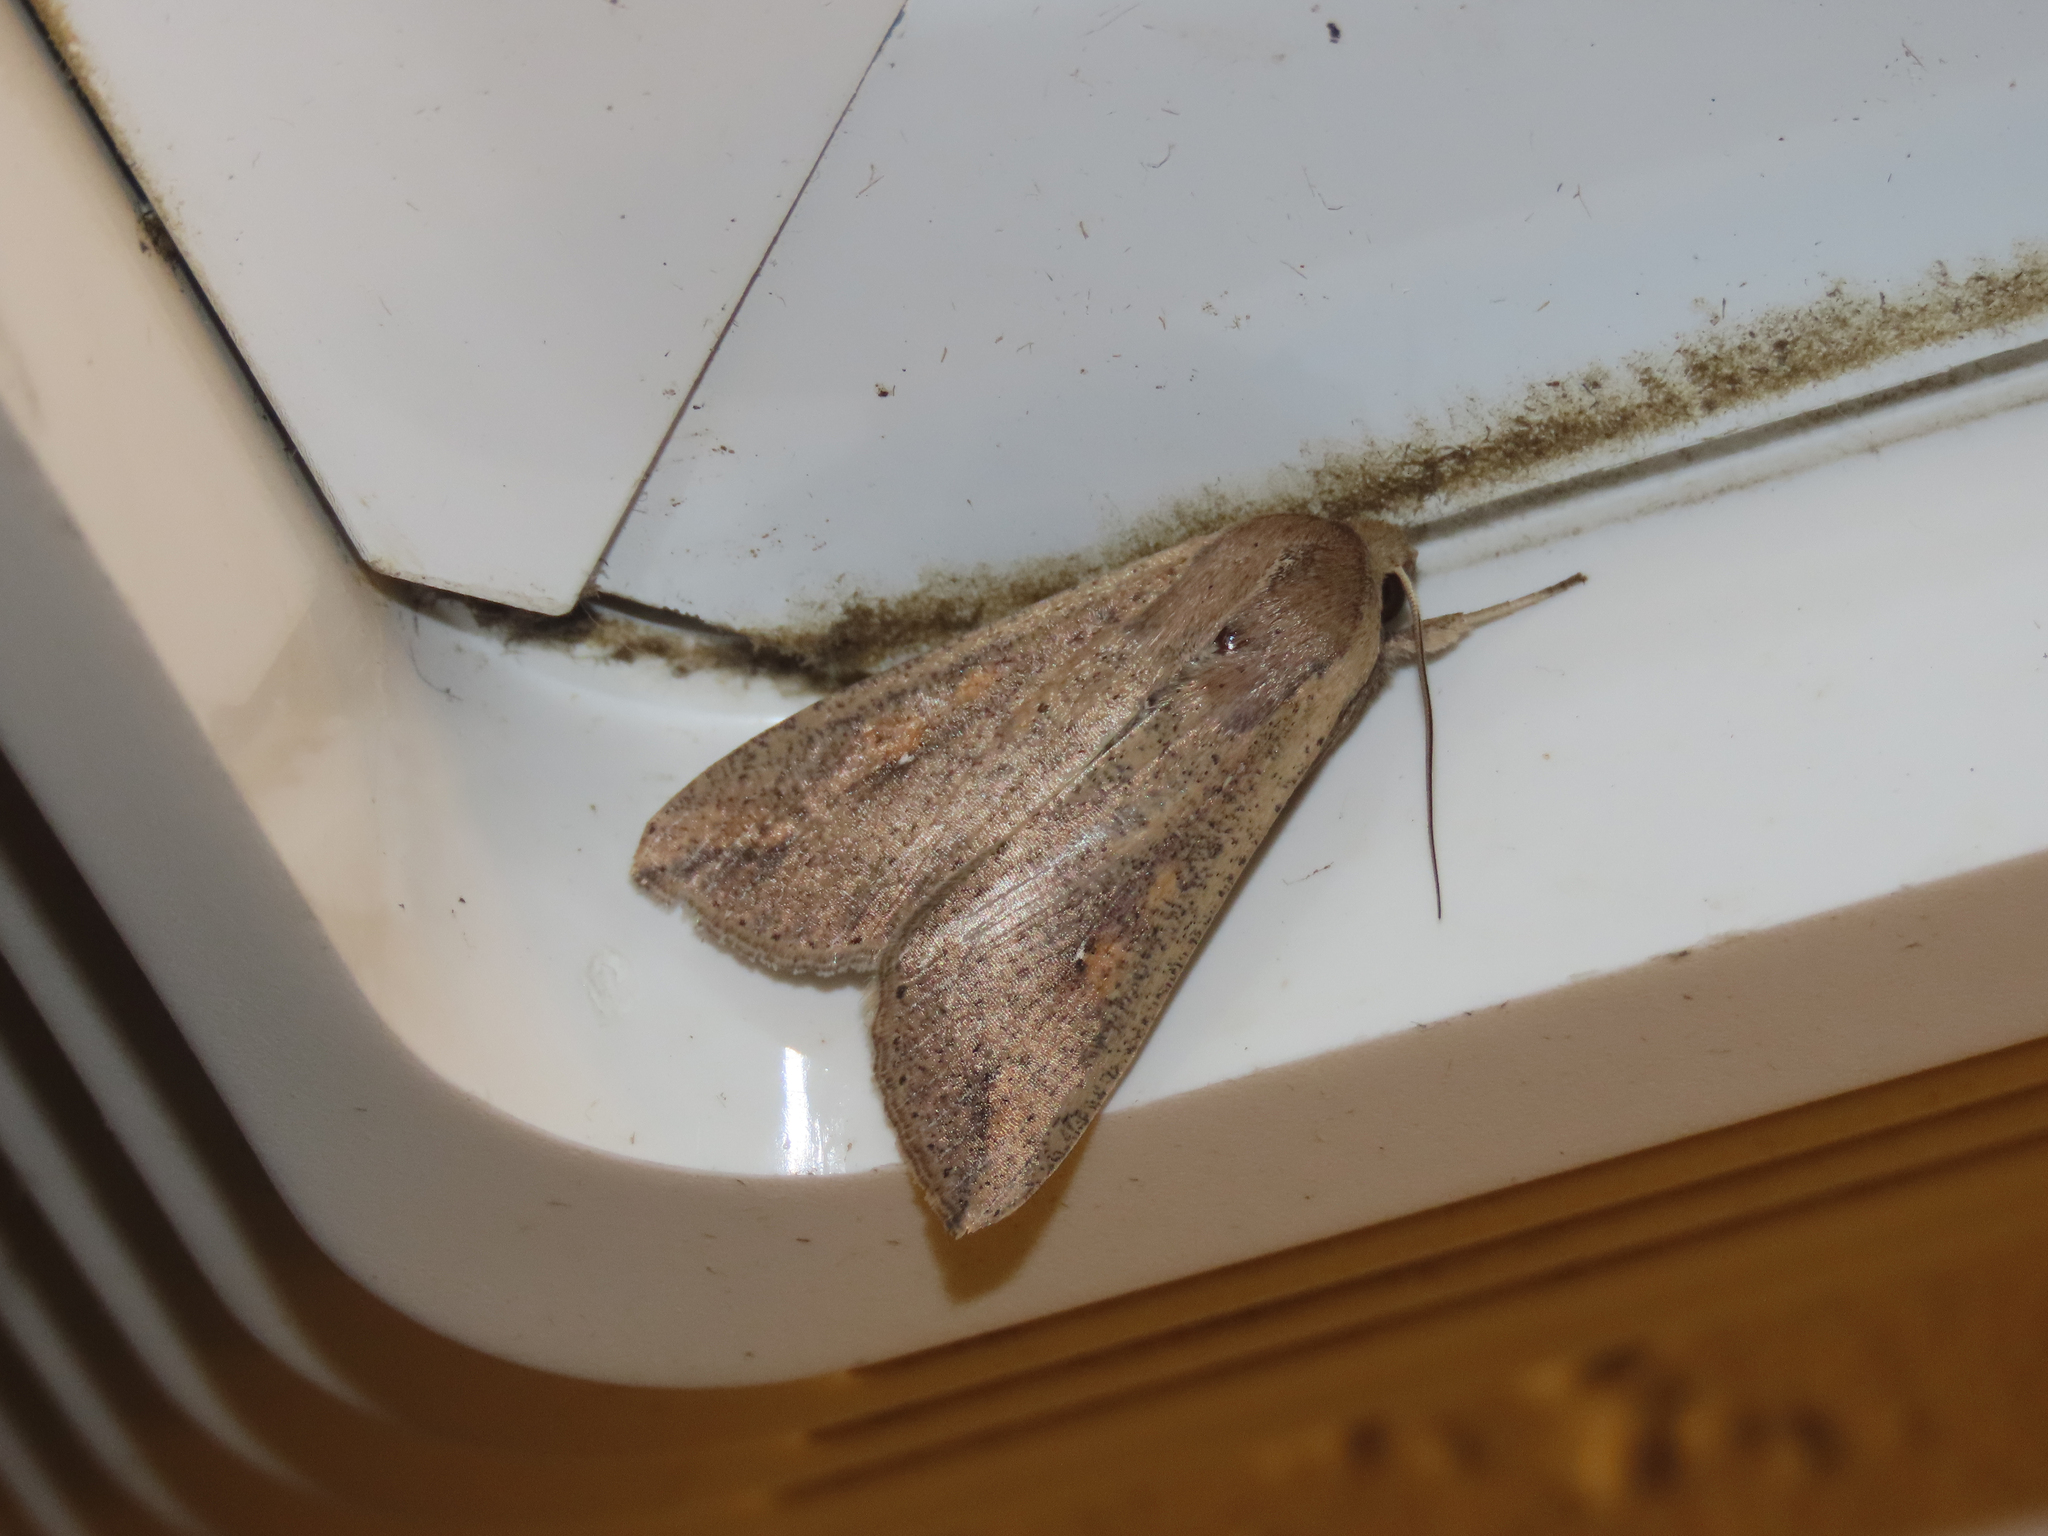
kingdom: Animalia
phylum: Arthropoda
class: Insecta
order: Lepidoptera
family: Noctuidae
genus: Mythimna
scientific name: Mythimna unipuncta
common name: White-speck
